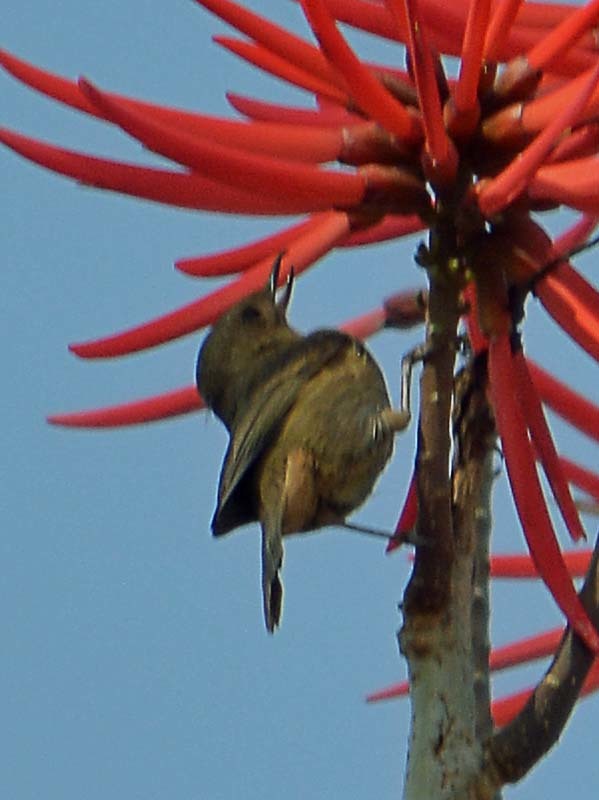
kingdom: Animalia
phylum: Chordata
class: Aves
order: Passeriformes
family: Thraupidae
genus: Diglossa
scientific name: Diglossa baritula
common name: Cinnamon-bellied flowerpiercer
